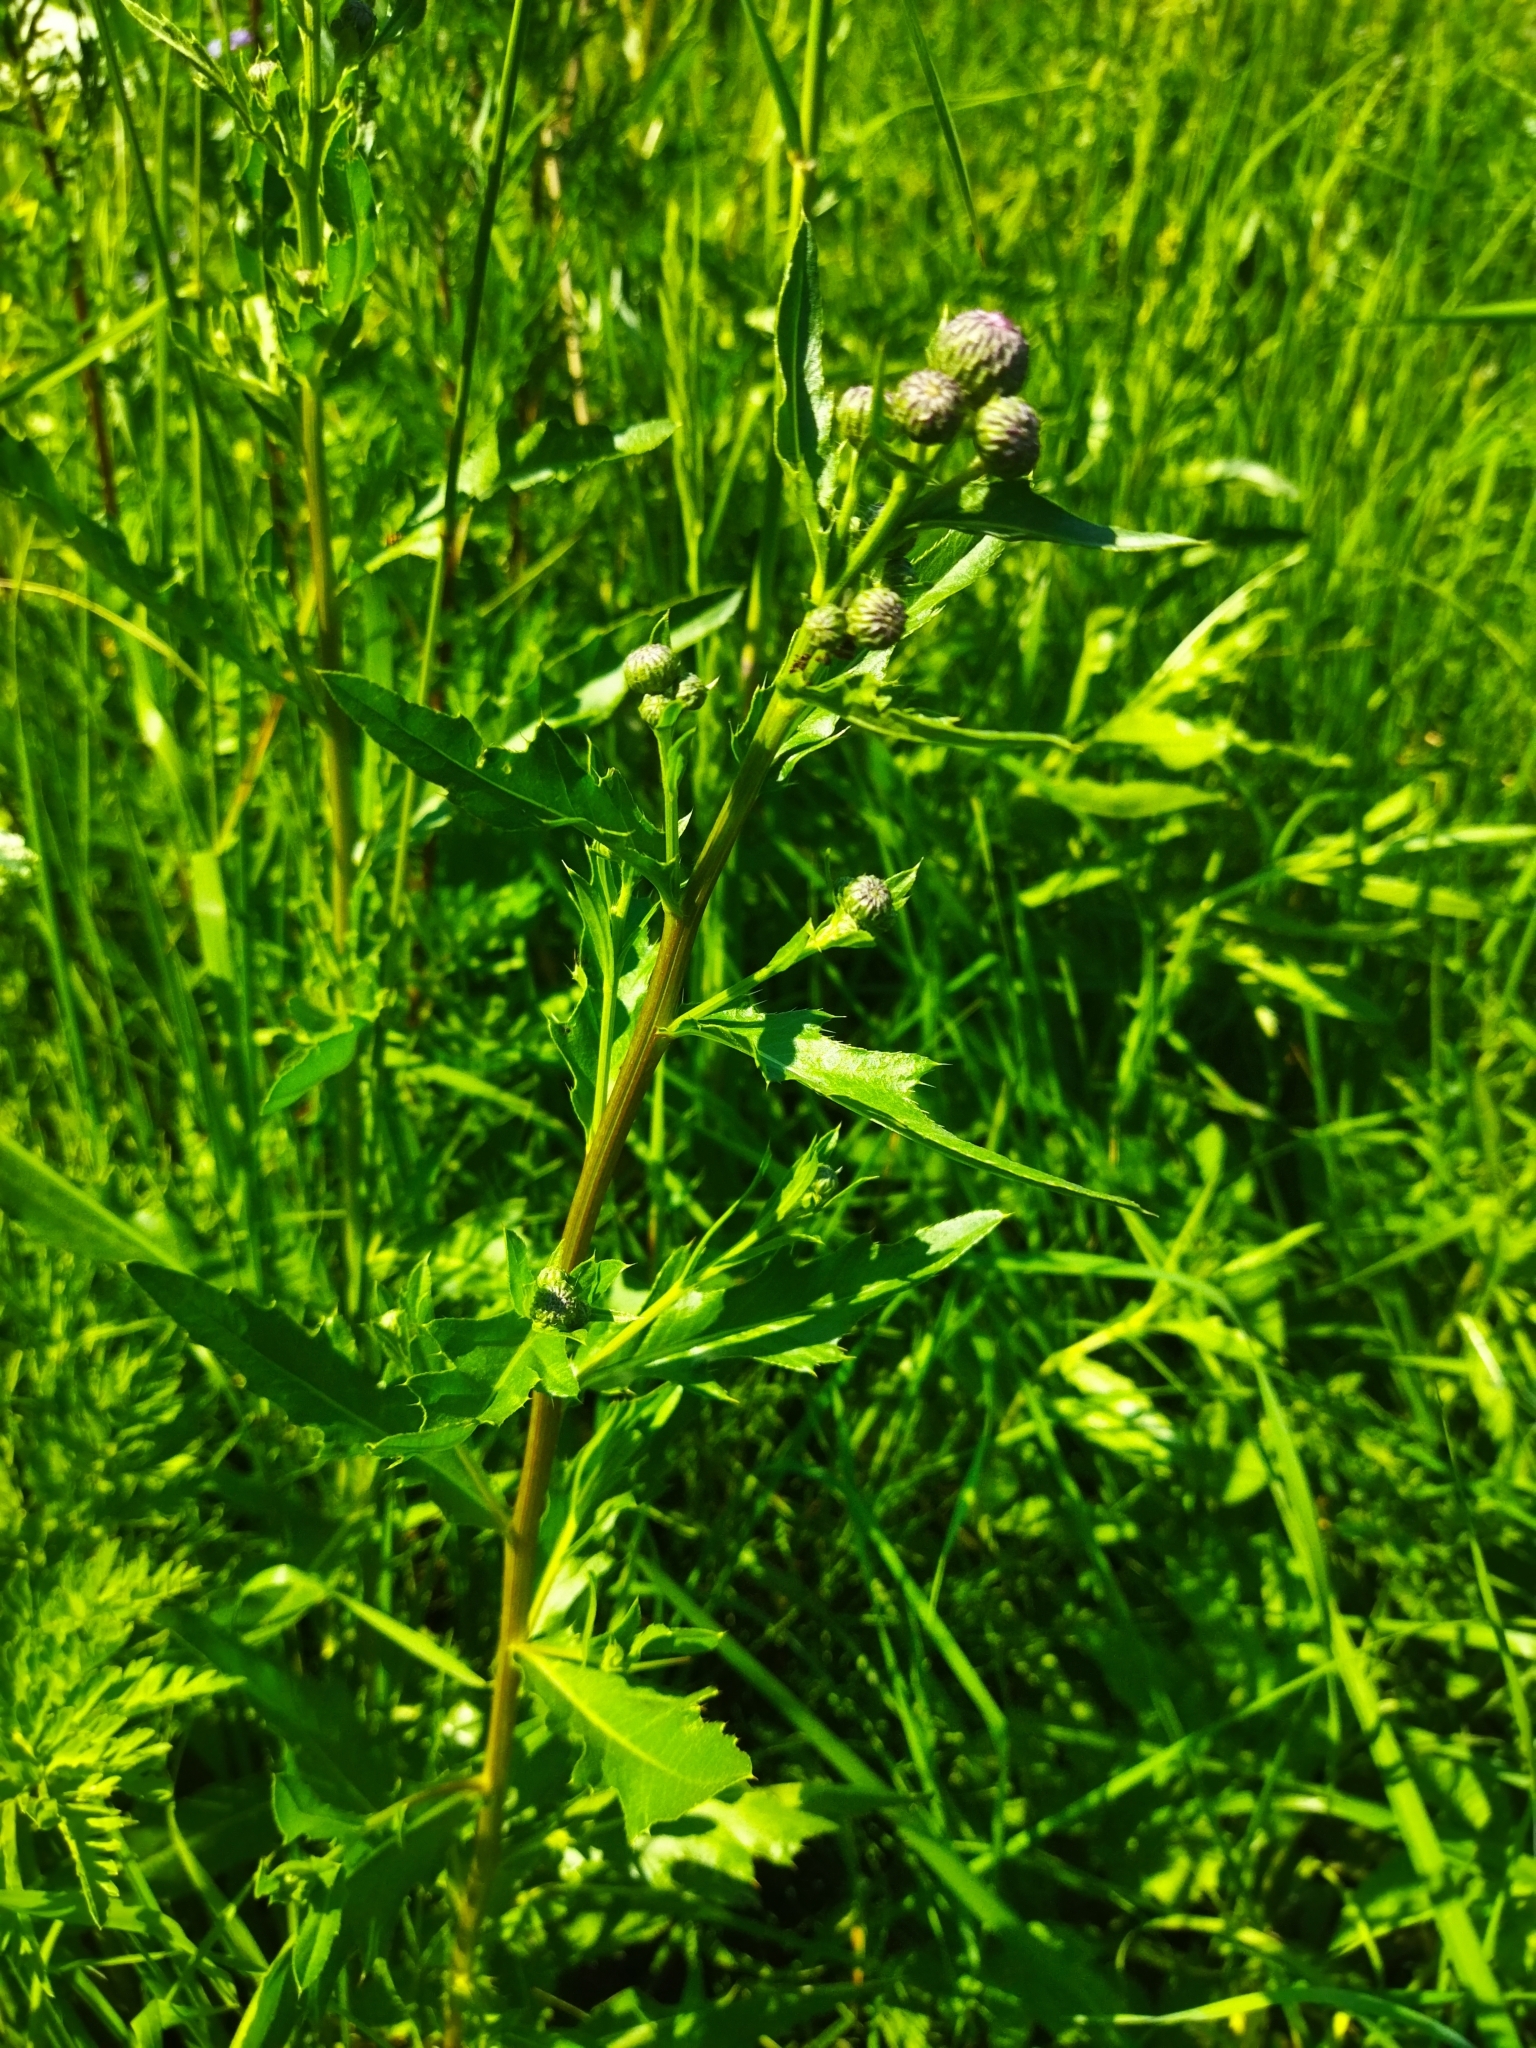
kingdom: Plantae
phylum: Tracheophyta
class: Magnoliopsida
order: Asterales
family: Asteraceae
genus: Cirsium
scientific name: Cirsium arvense
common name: Creeping thistle
